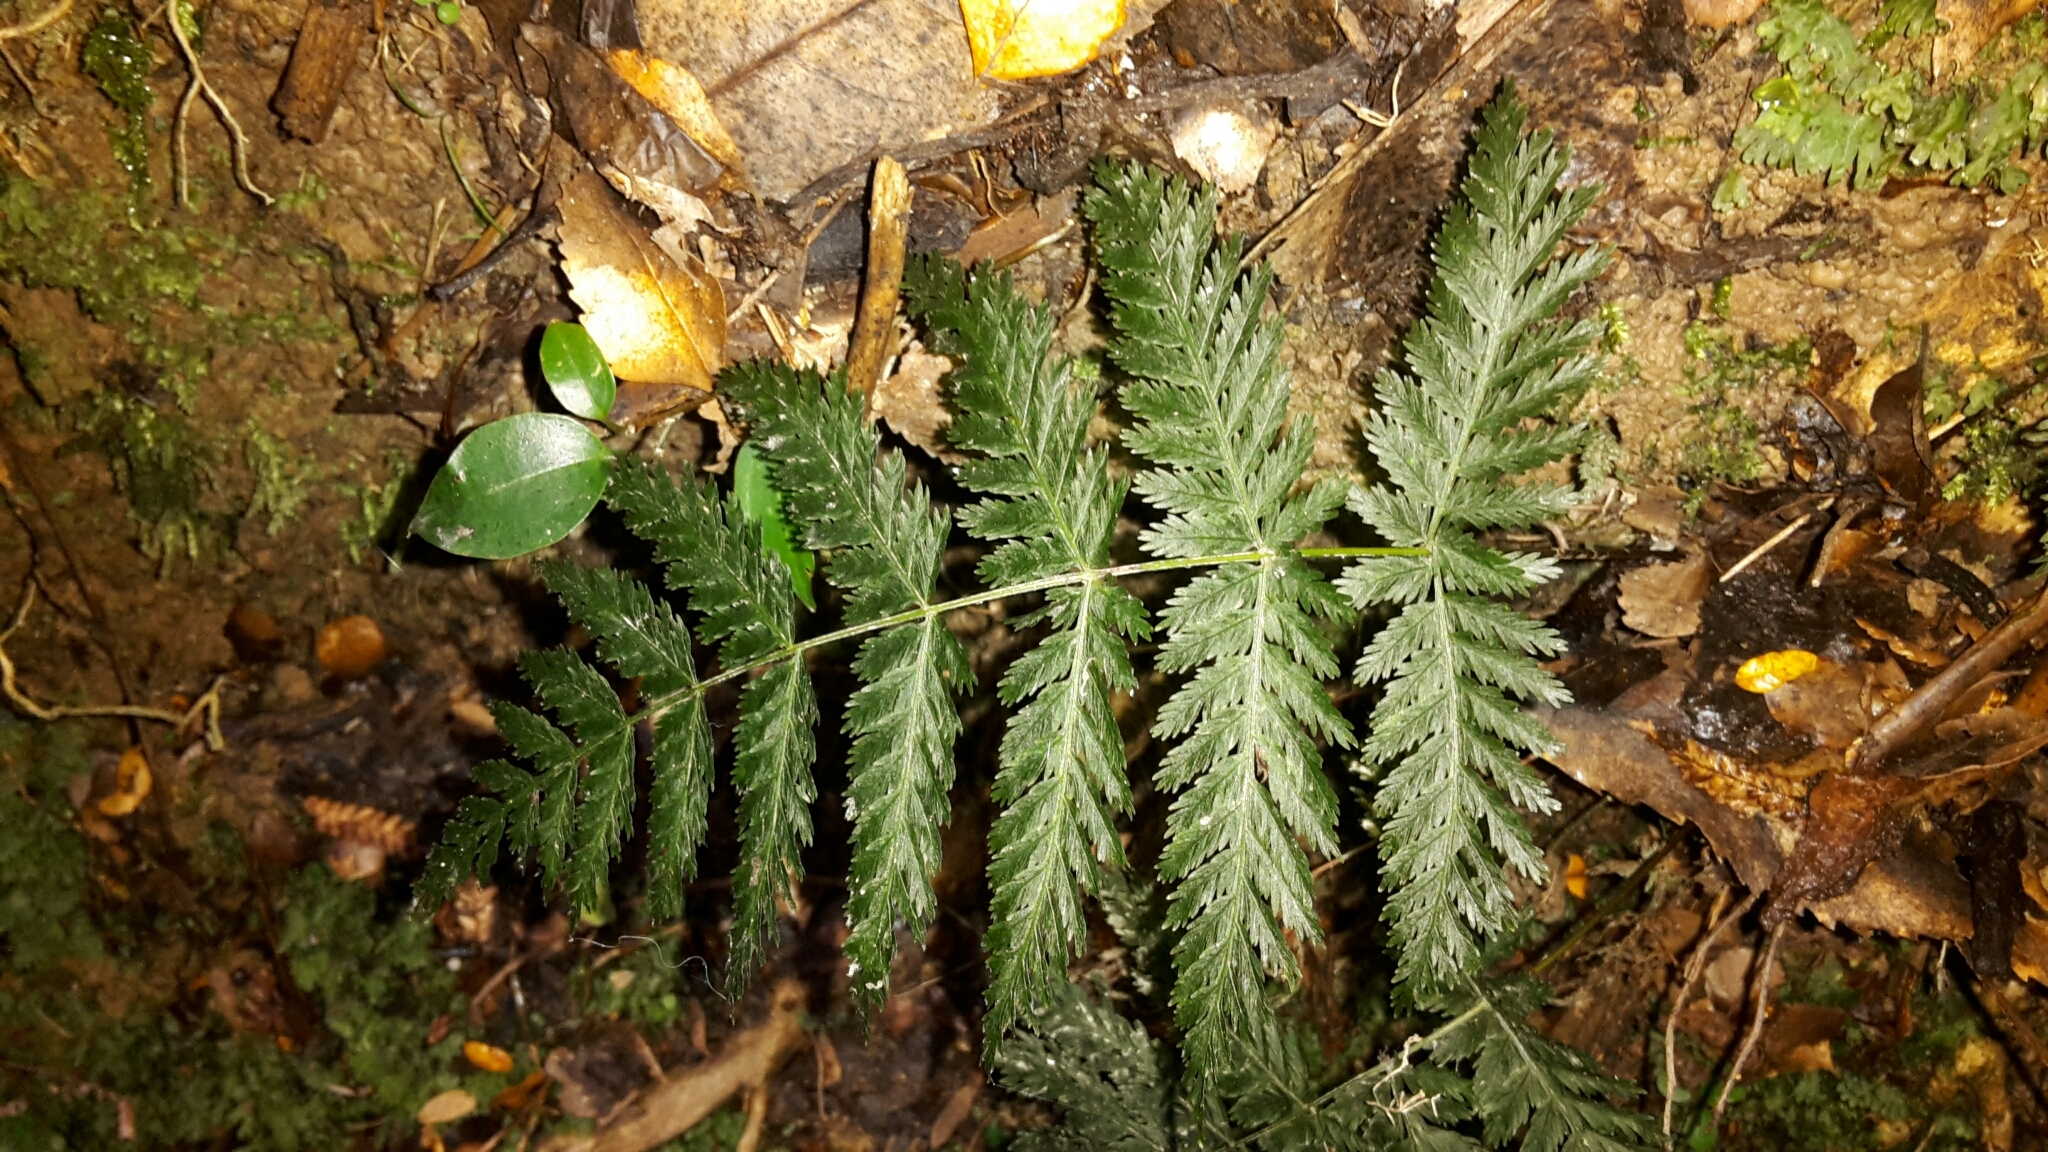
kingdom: Plantae
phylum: Tracheophyta
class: Polypodiopsida
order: Osmundales
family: Osmundaceae
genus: Leptopteris
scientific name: Leptopteris hymenophylloides
